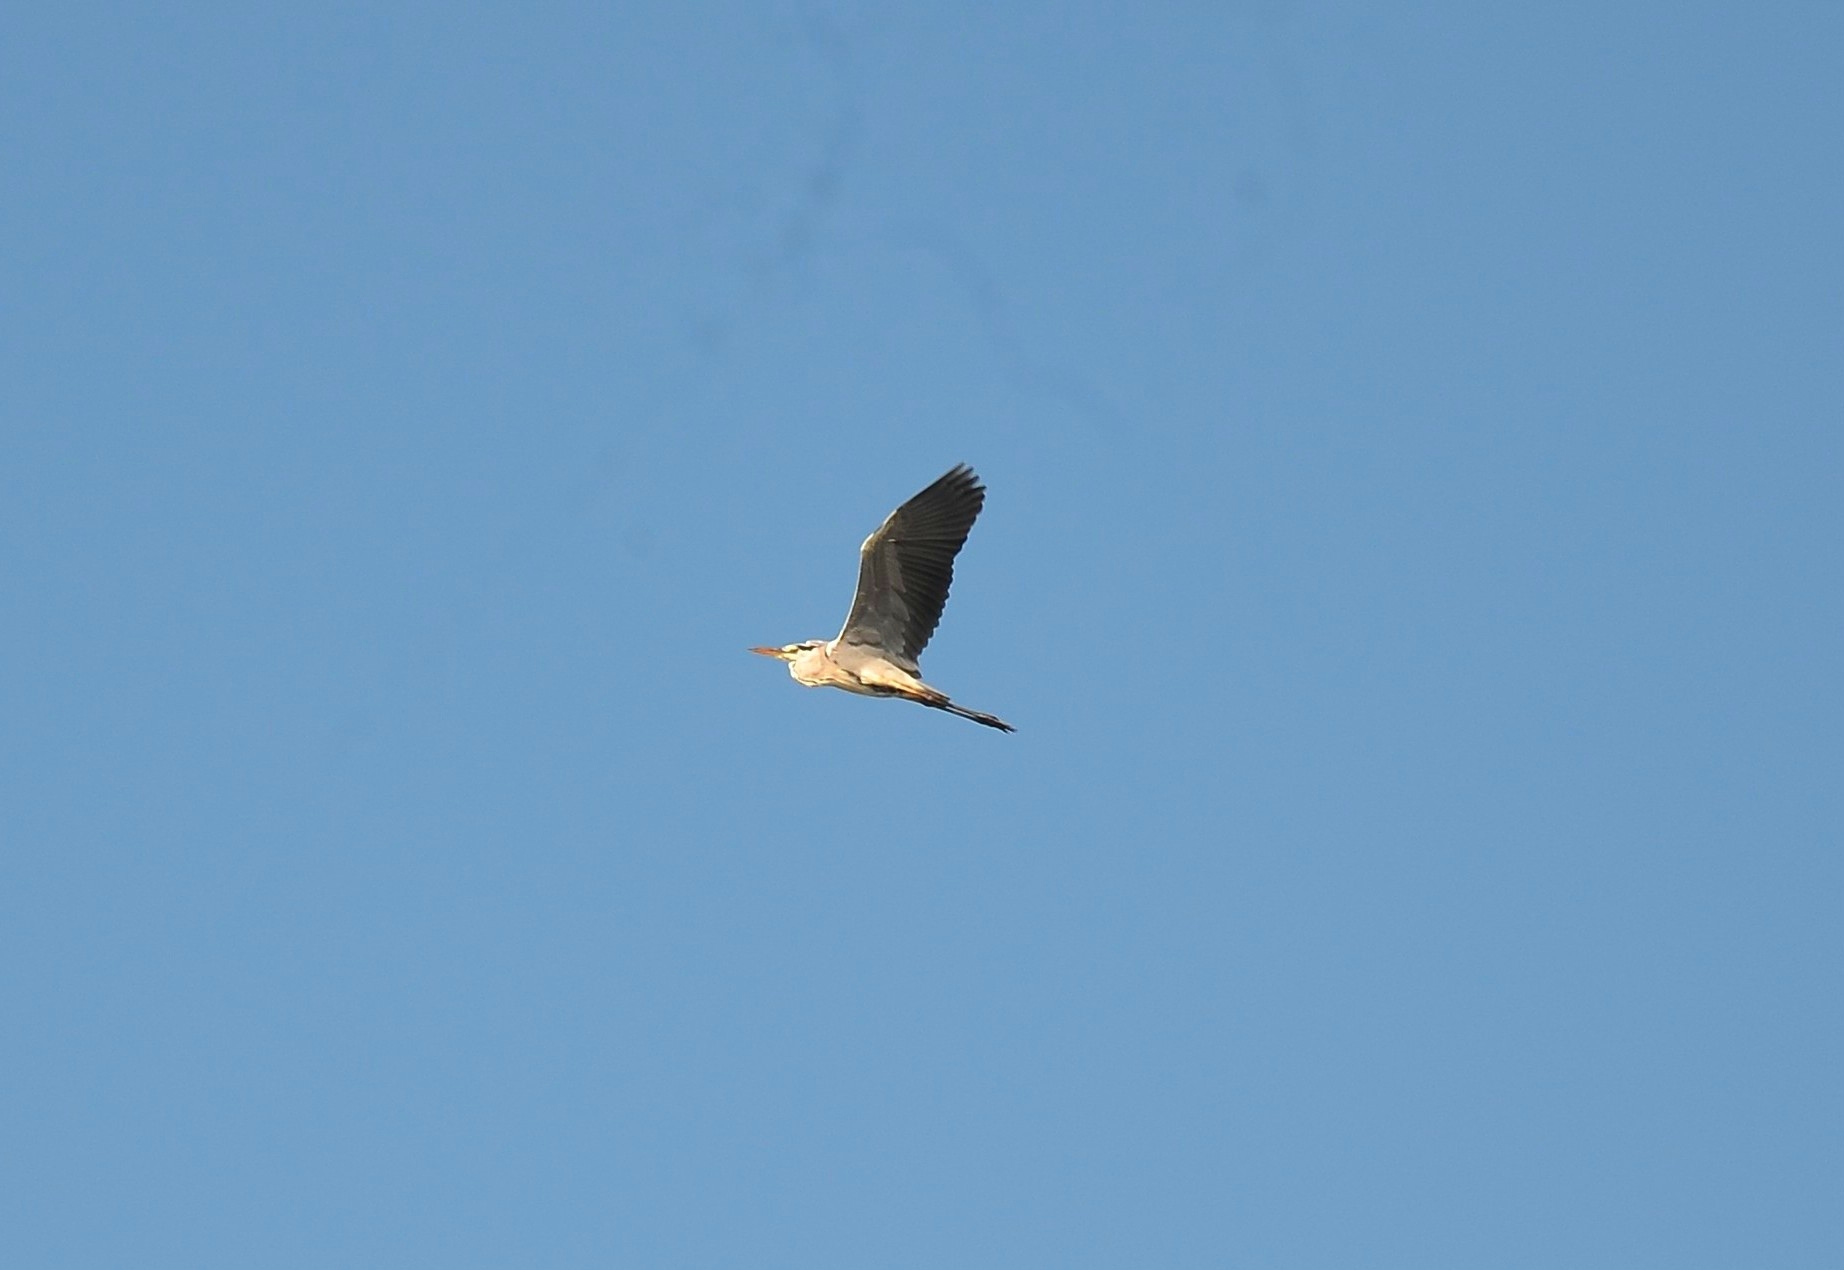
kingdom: Animalia
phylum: Chordata
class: Aves
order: Pelecaniformes
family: Ardeidae
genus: Ardea
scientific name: Ardea cinerea
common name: Grey heron
